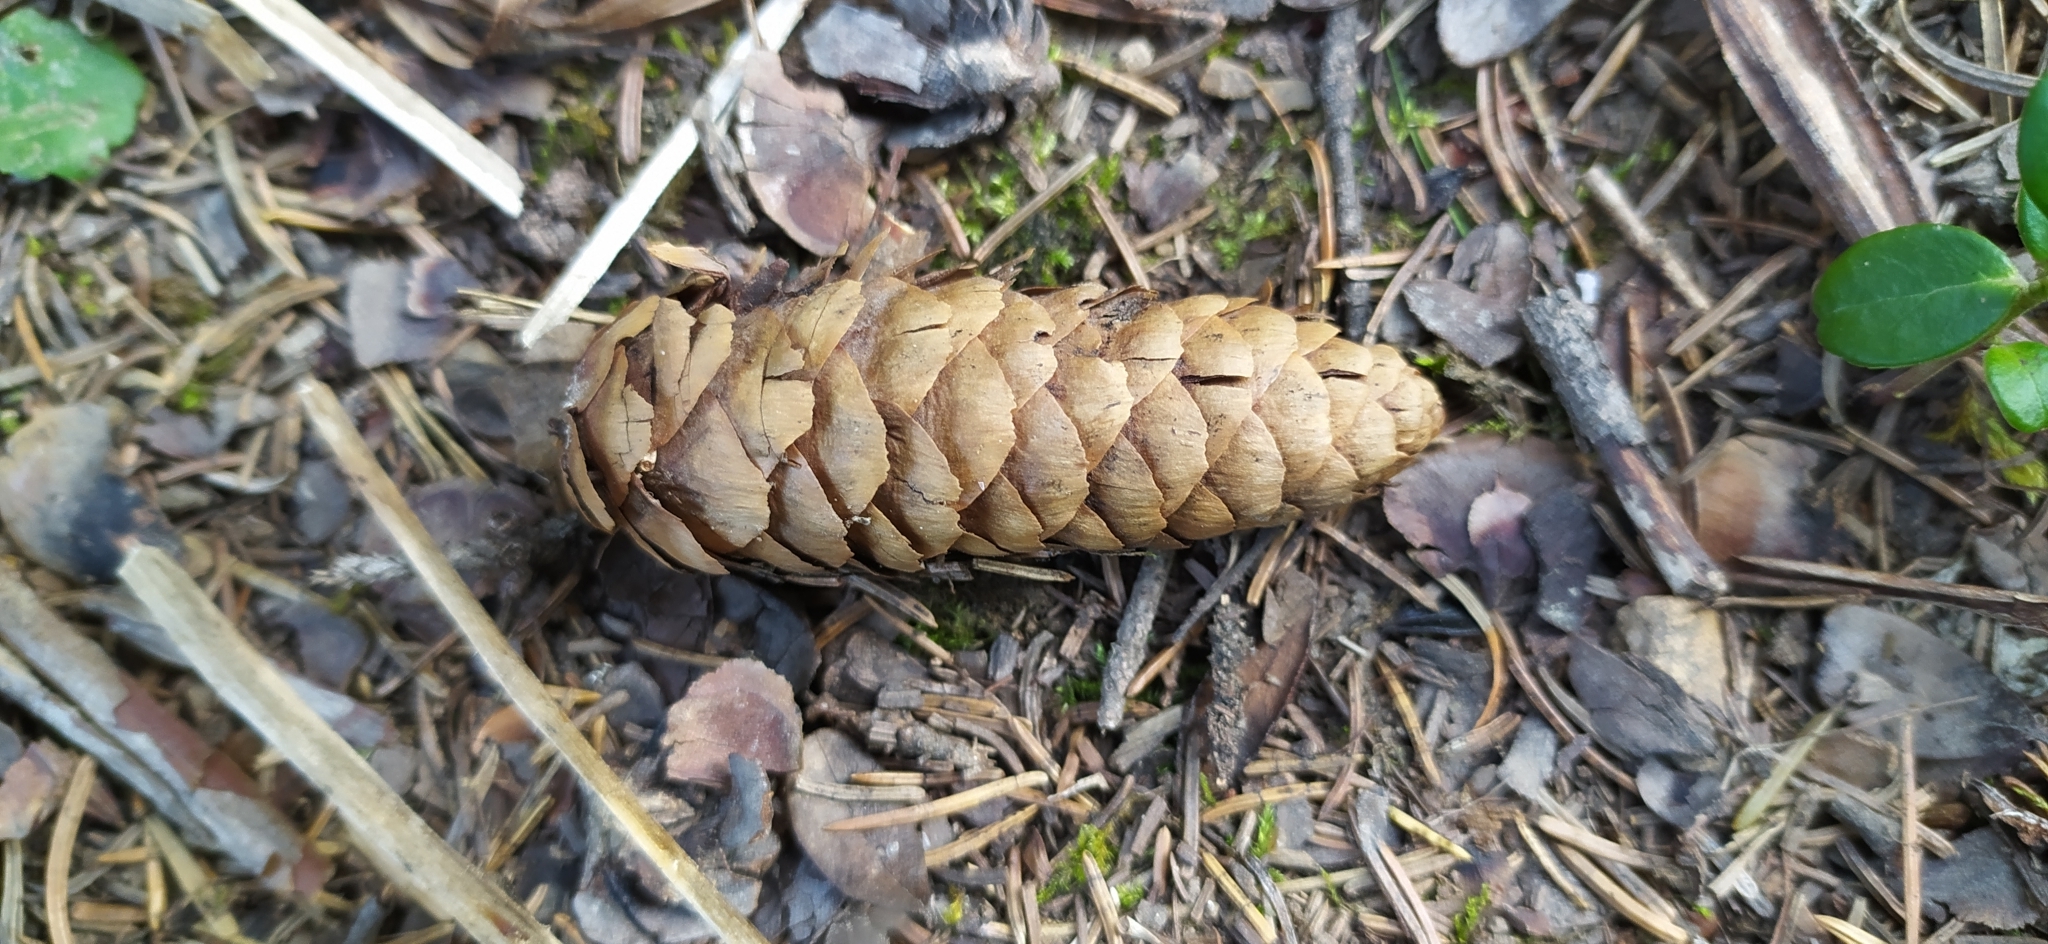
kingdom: Plantae
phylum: Tracheophyta
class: Pinopsida
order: Pinales
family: Pinaceae
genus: Picea
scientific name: Picea obovata
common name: Siberian spruce
